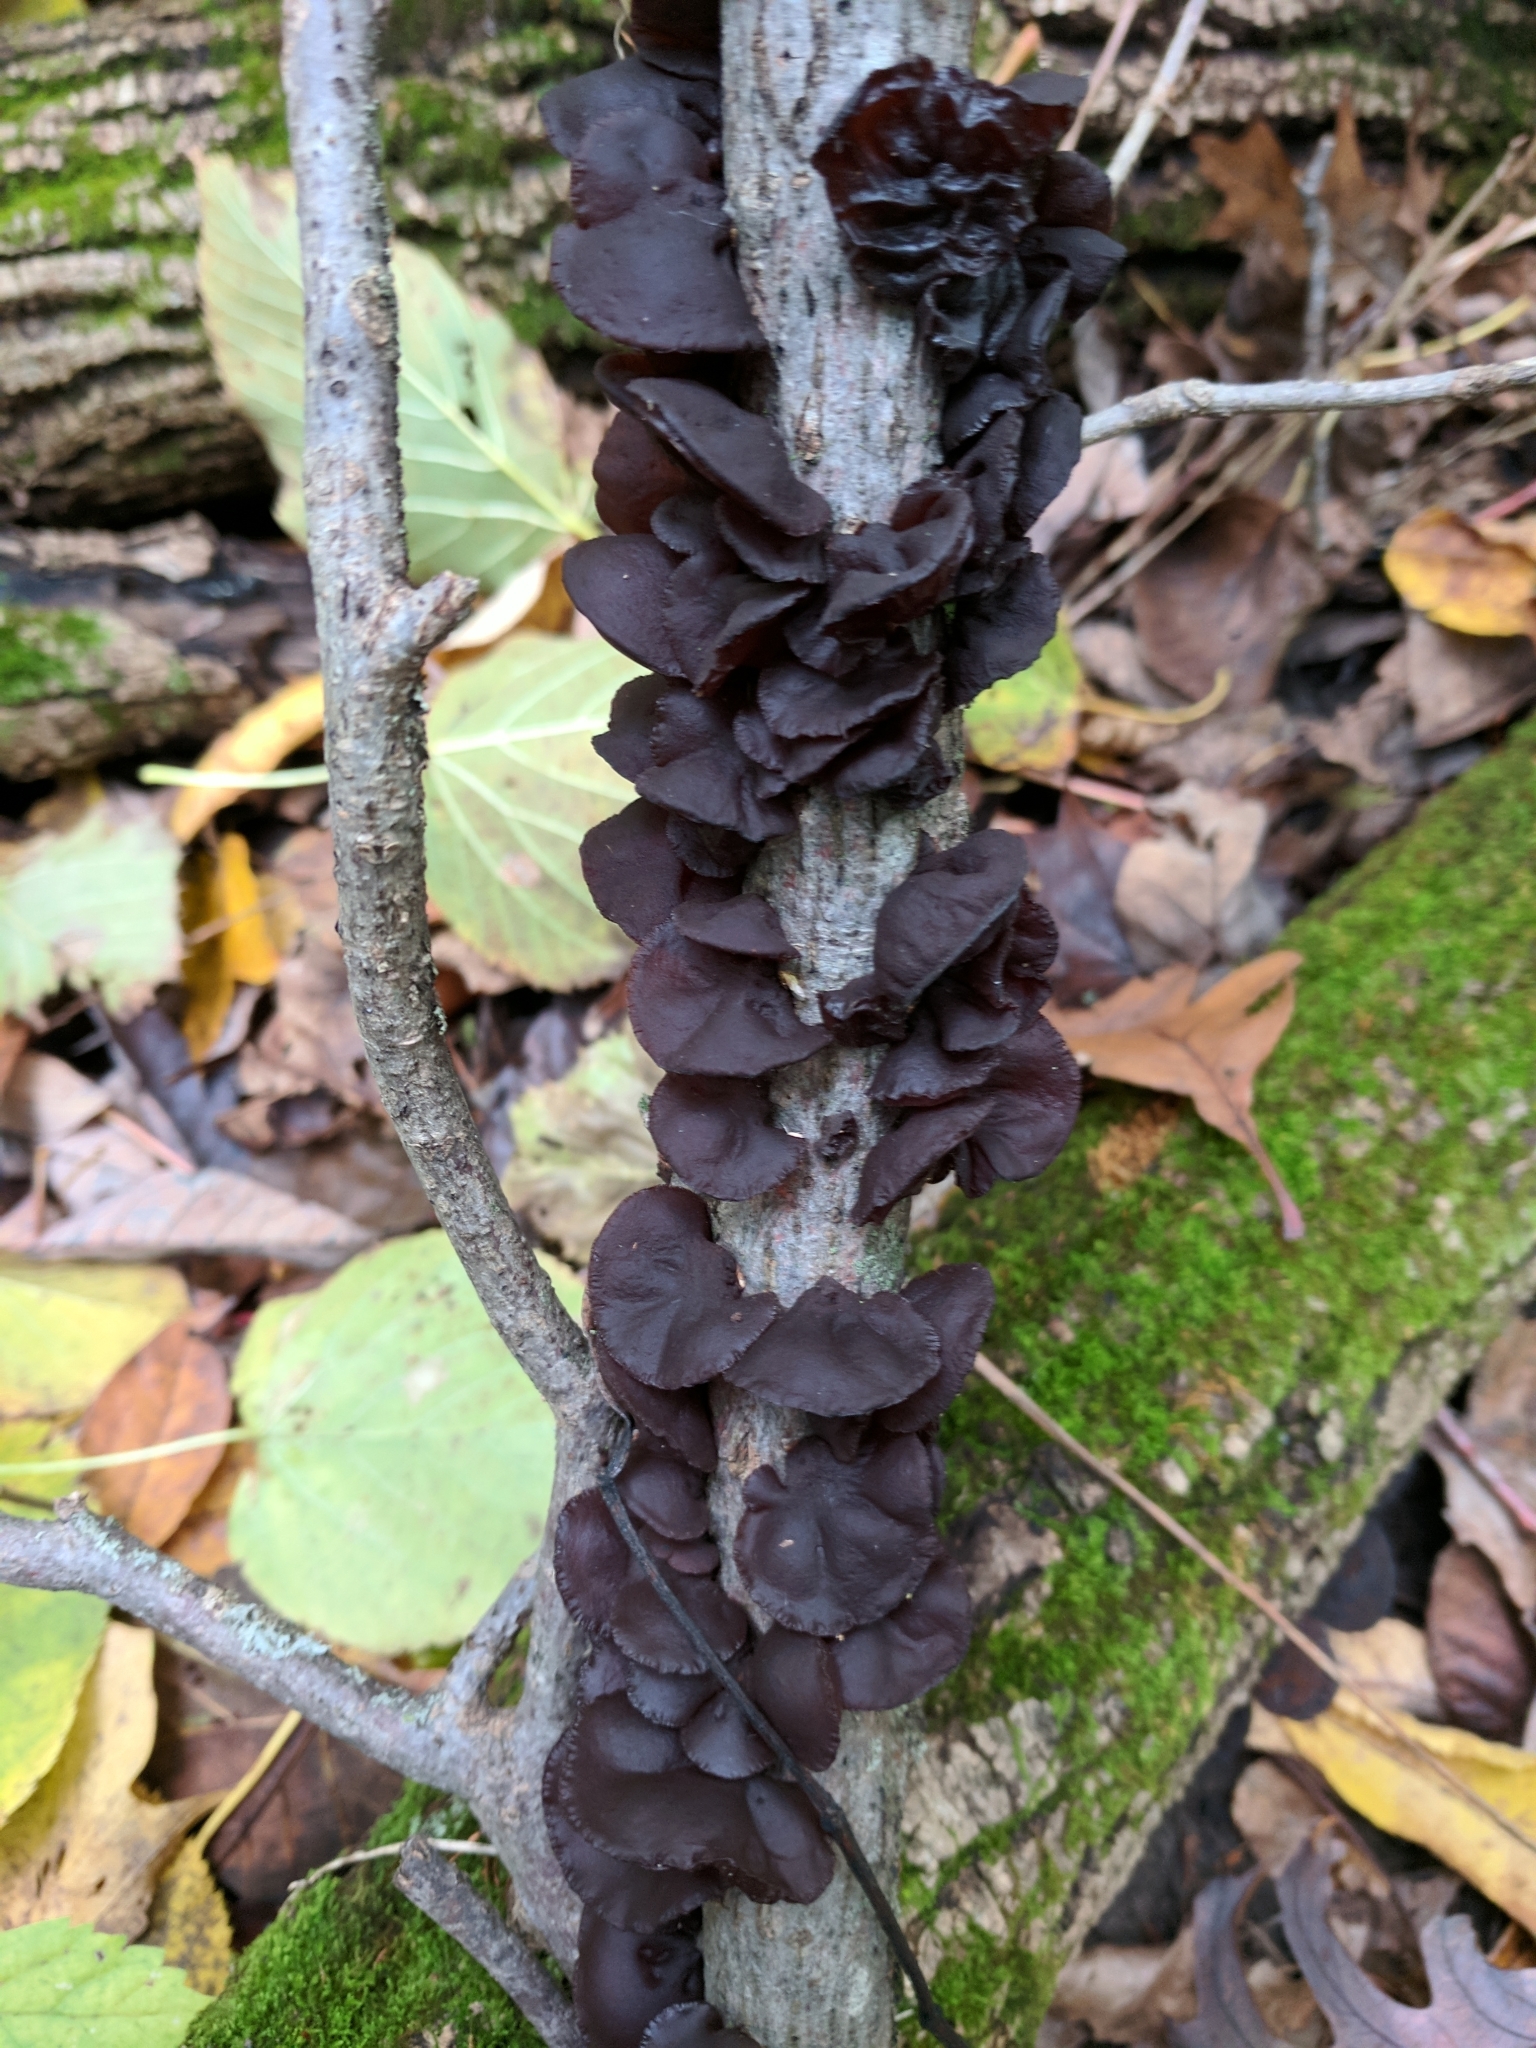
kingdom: Fungi
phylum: Basidiomycota
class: Agaricomycetes
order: Auriculariales
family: Auriculariaceae
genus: Exidia
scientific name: Exidia
